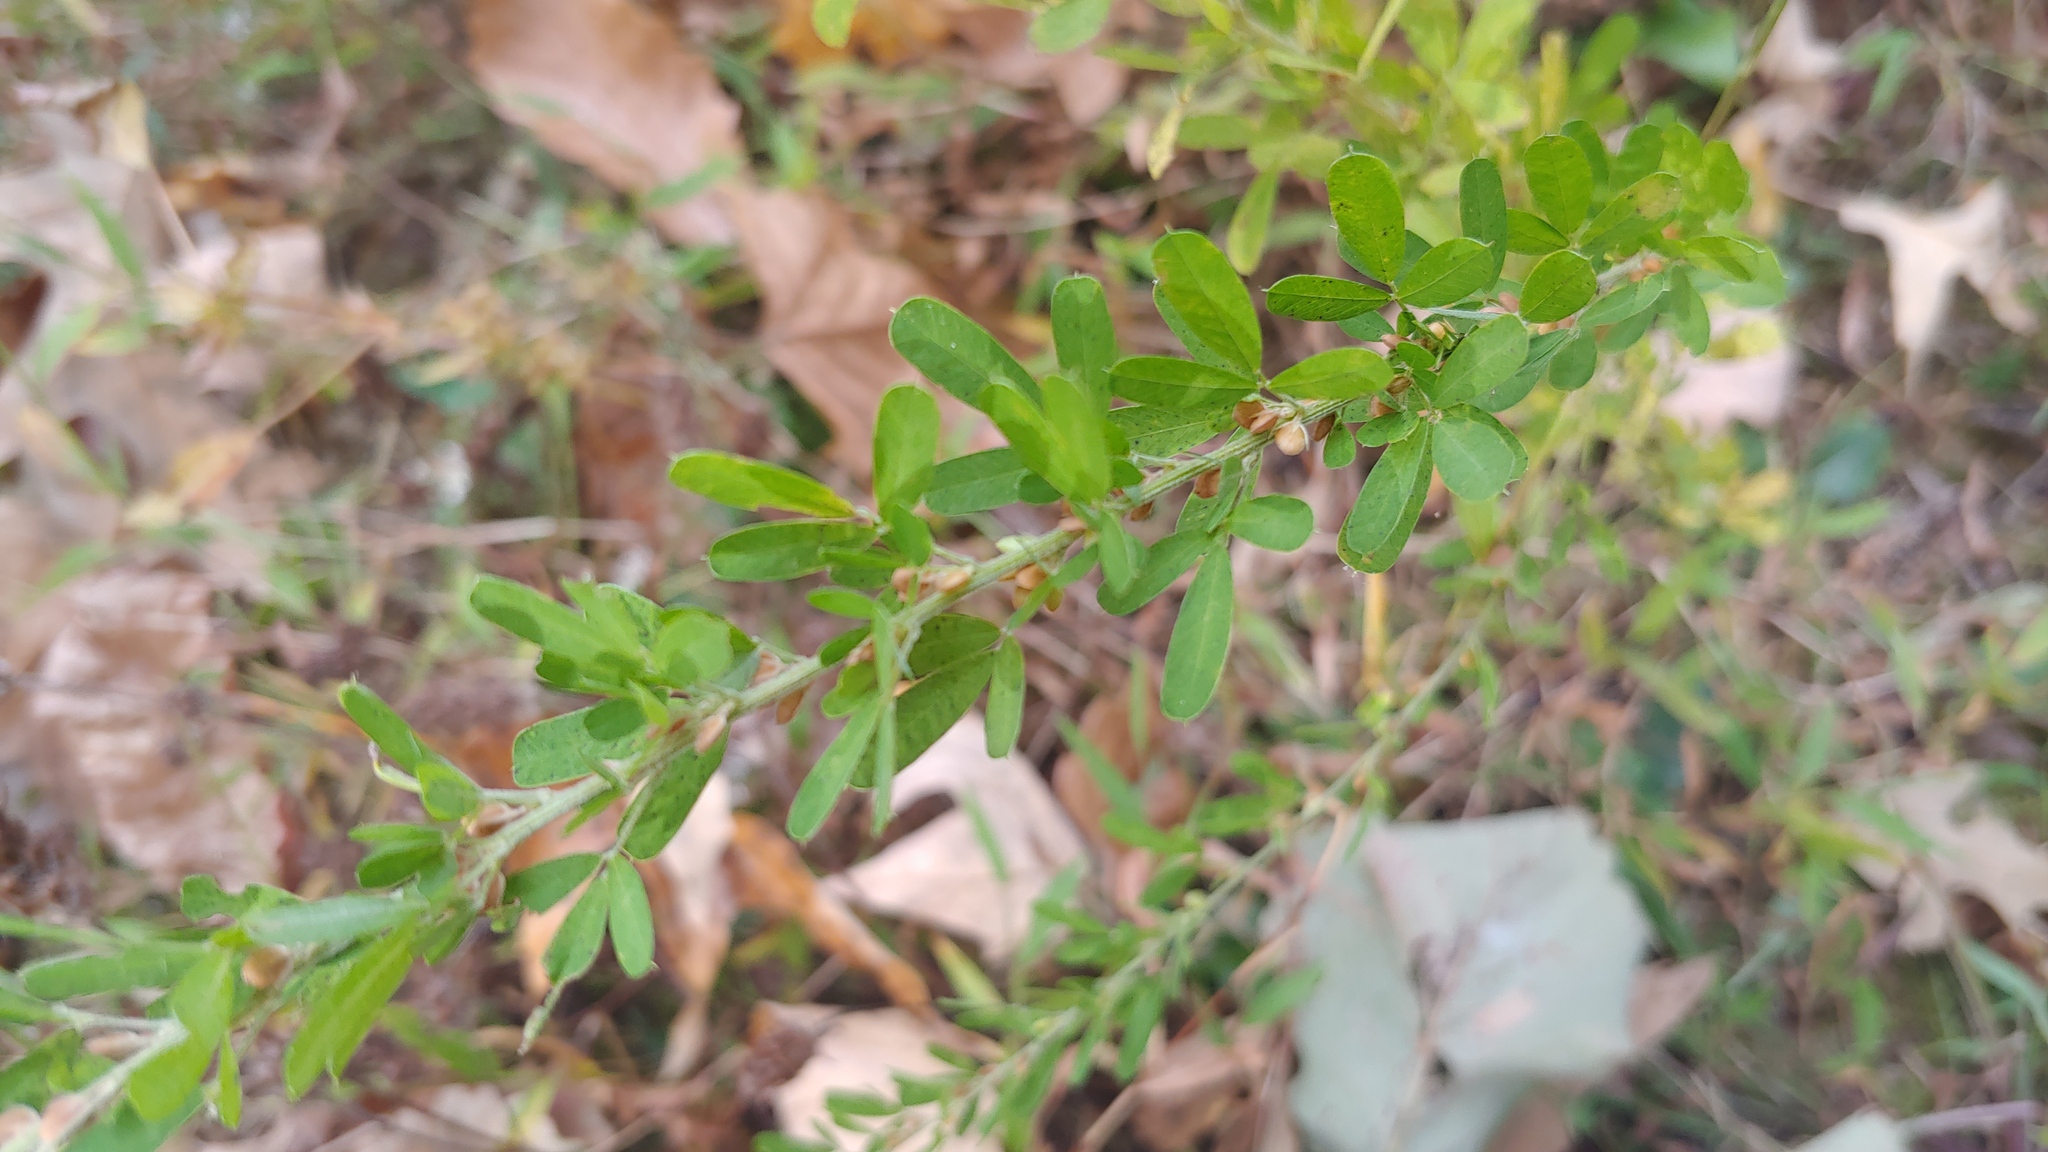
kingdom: Plantae
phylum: Tracheophyta
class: Magnoliopsida
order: Fabales
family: Fabaceae
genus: Lespedeza
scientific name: Lespedeza cuneata
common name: Chinese bush-clover
